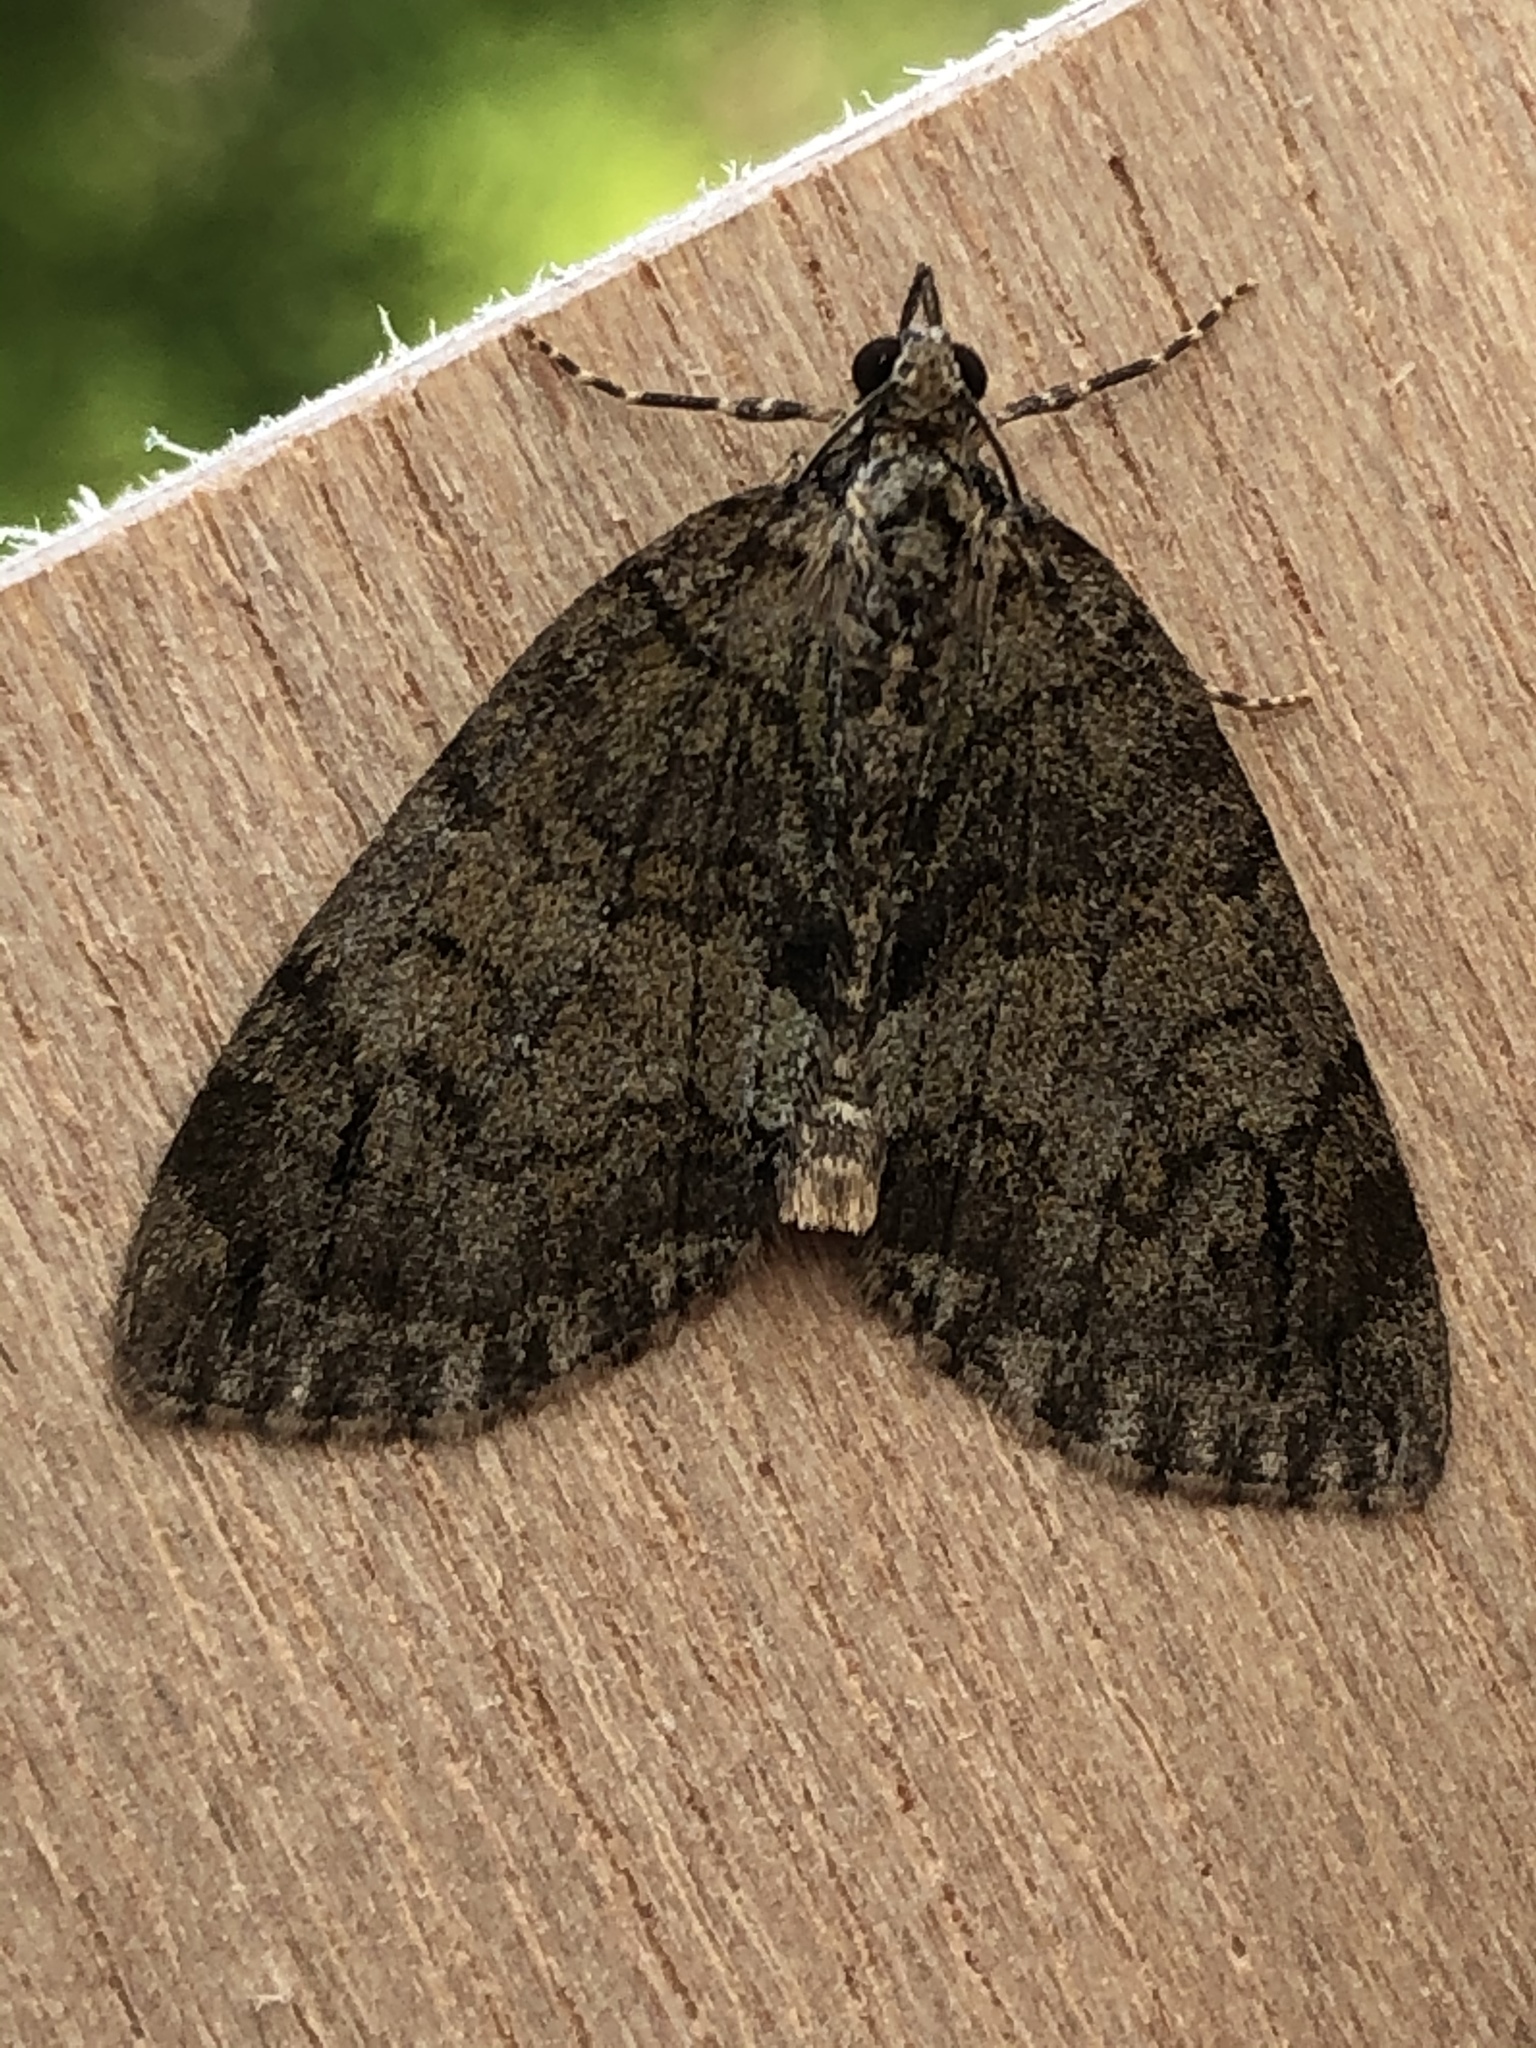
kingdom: Animalia
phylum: Arthropoda
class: Insecta
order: Lepidoptera
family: Geometridae
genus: Hydriomena
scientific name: Hydriomena impluviata
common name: May highflyer
